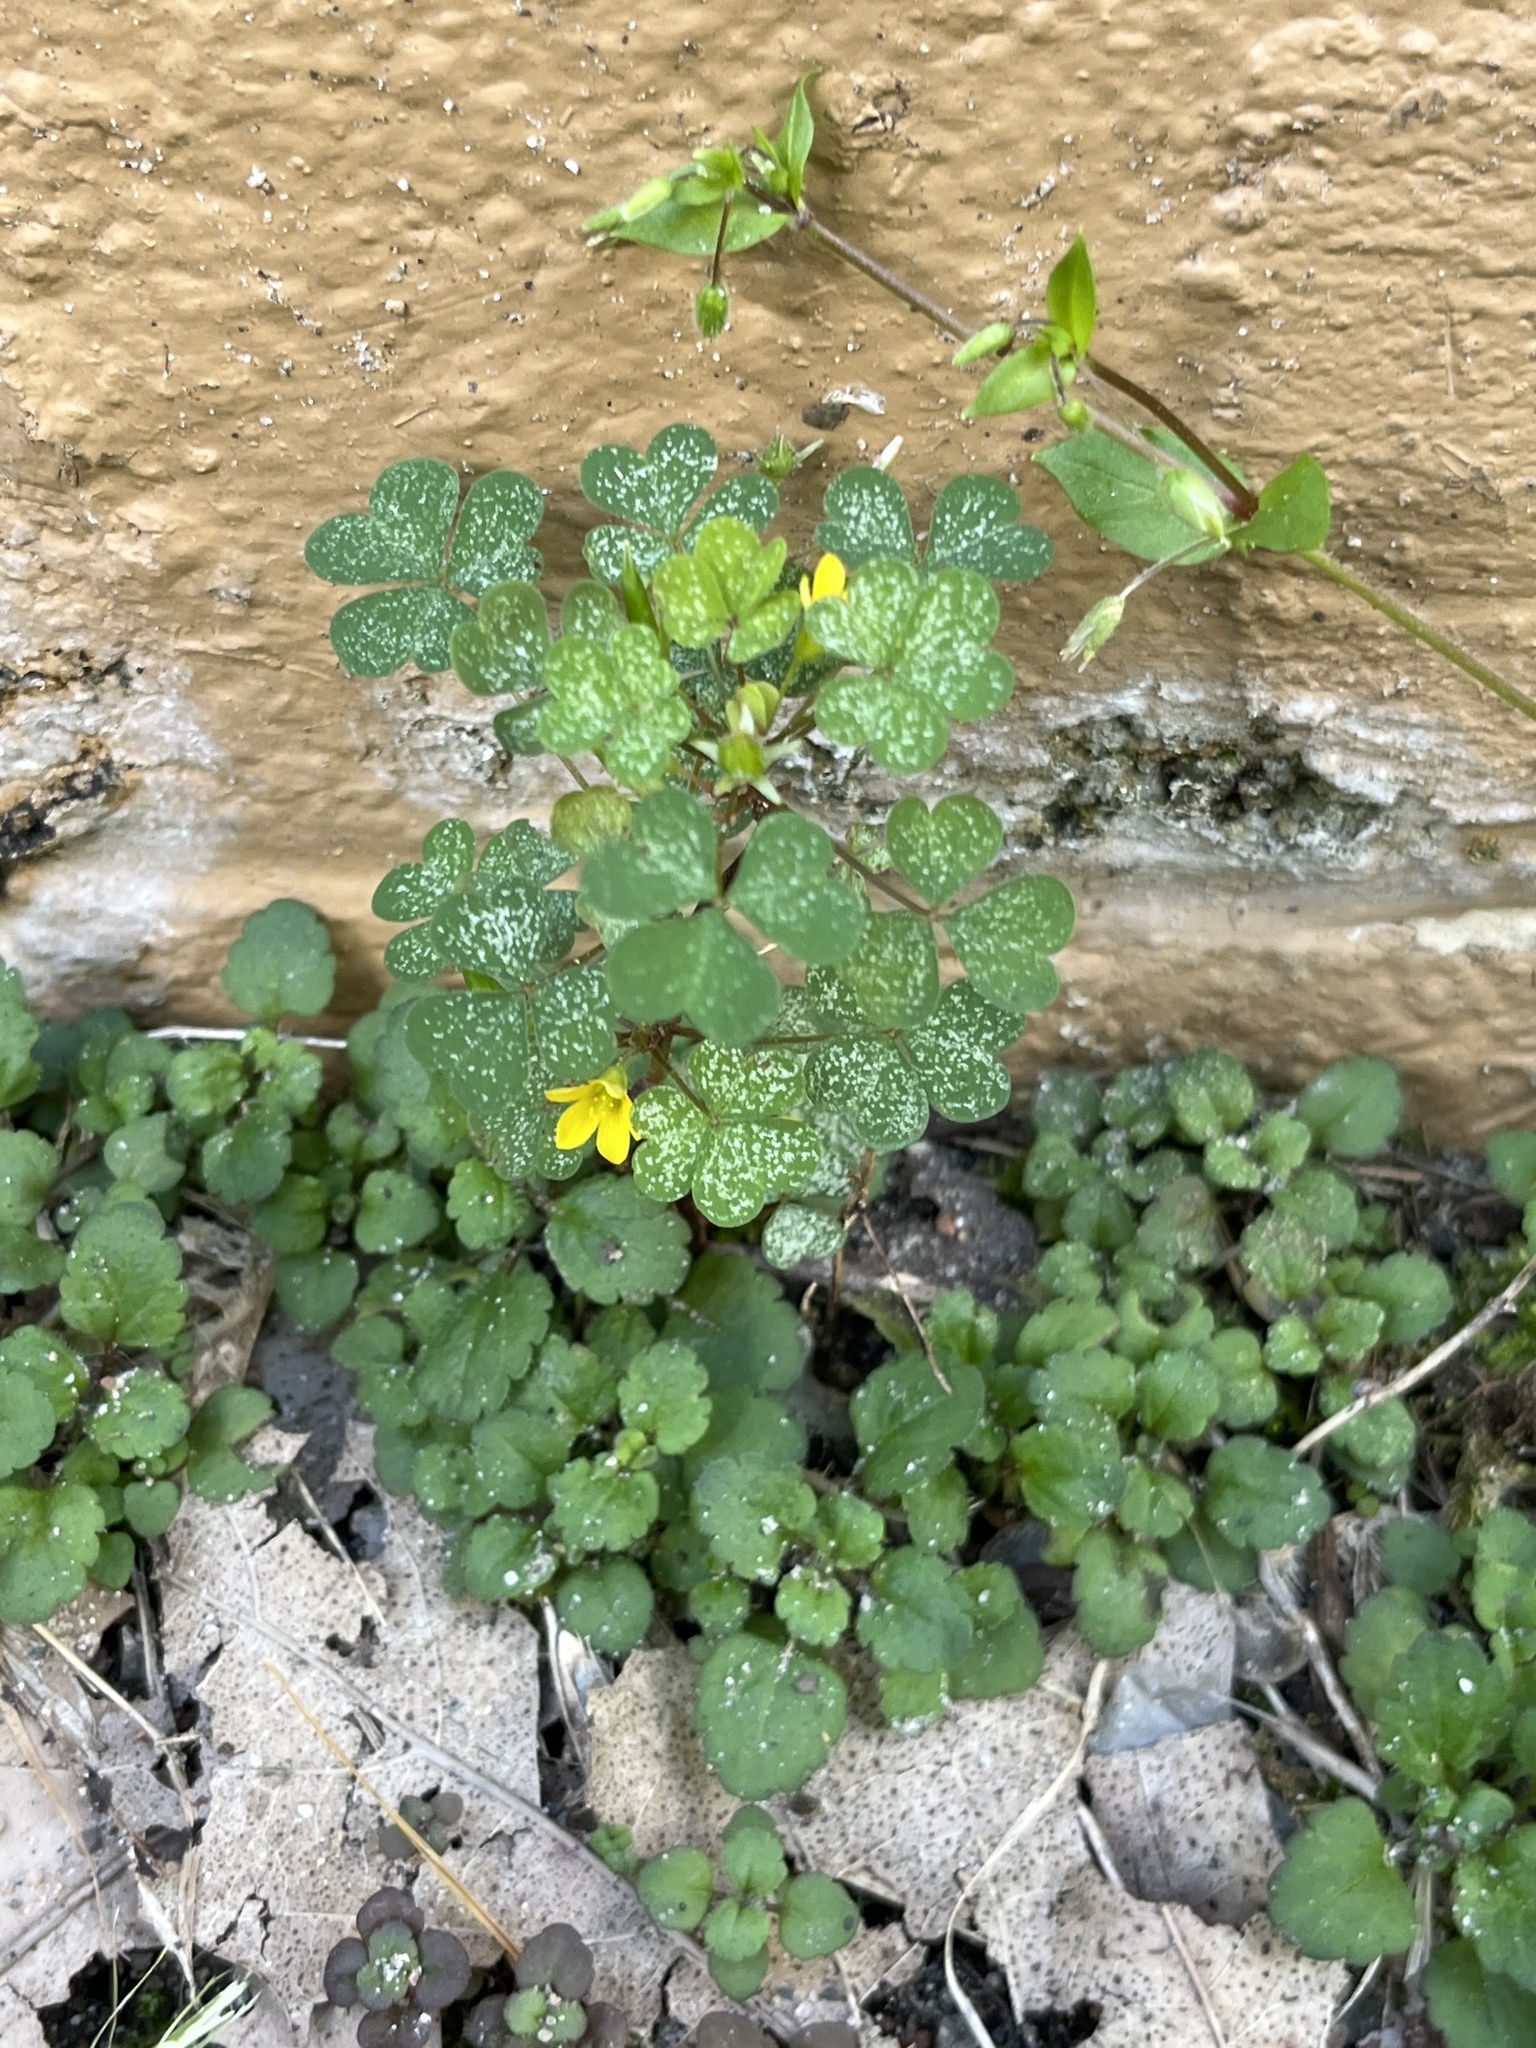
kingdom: Plantae
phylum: Tracheophyta
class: Magnoliopsida
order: Oxalidales
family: Oxalidaceae
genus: Oxalis
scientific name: Oxalis corniculata
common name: Procumbent yellow-sorrel
